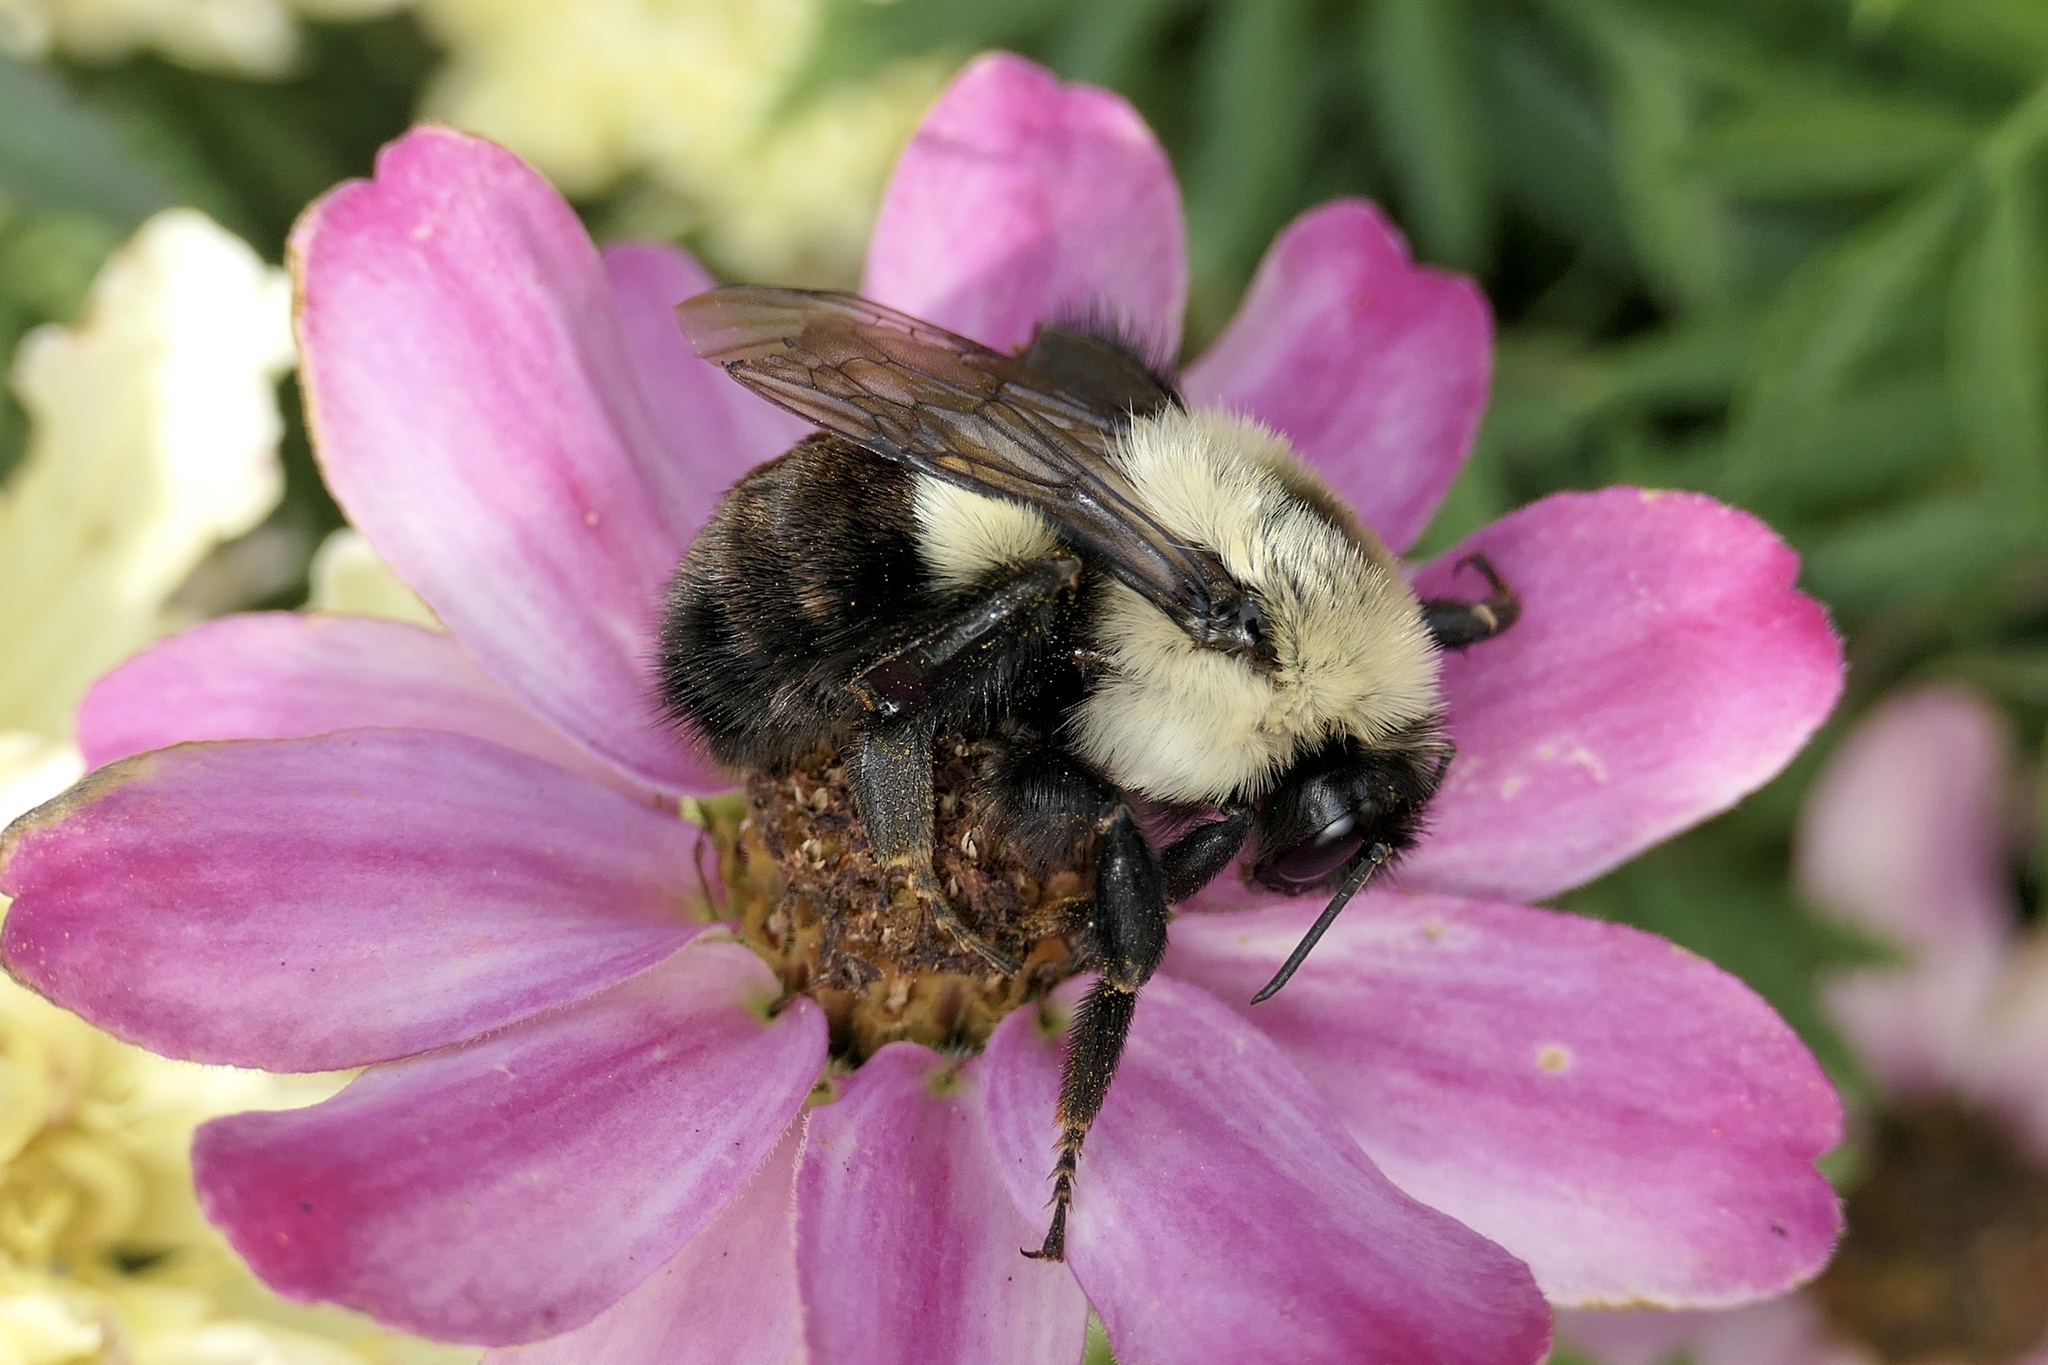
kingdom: Animalia
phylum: Arthropoda
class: Insecta
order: Hymenoptera
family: Apidae
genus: Bombus
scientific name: Bombus impatiens
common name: Common eastern bumble bee
